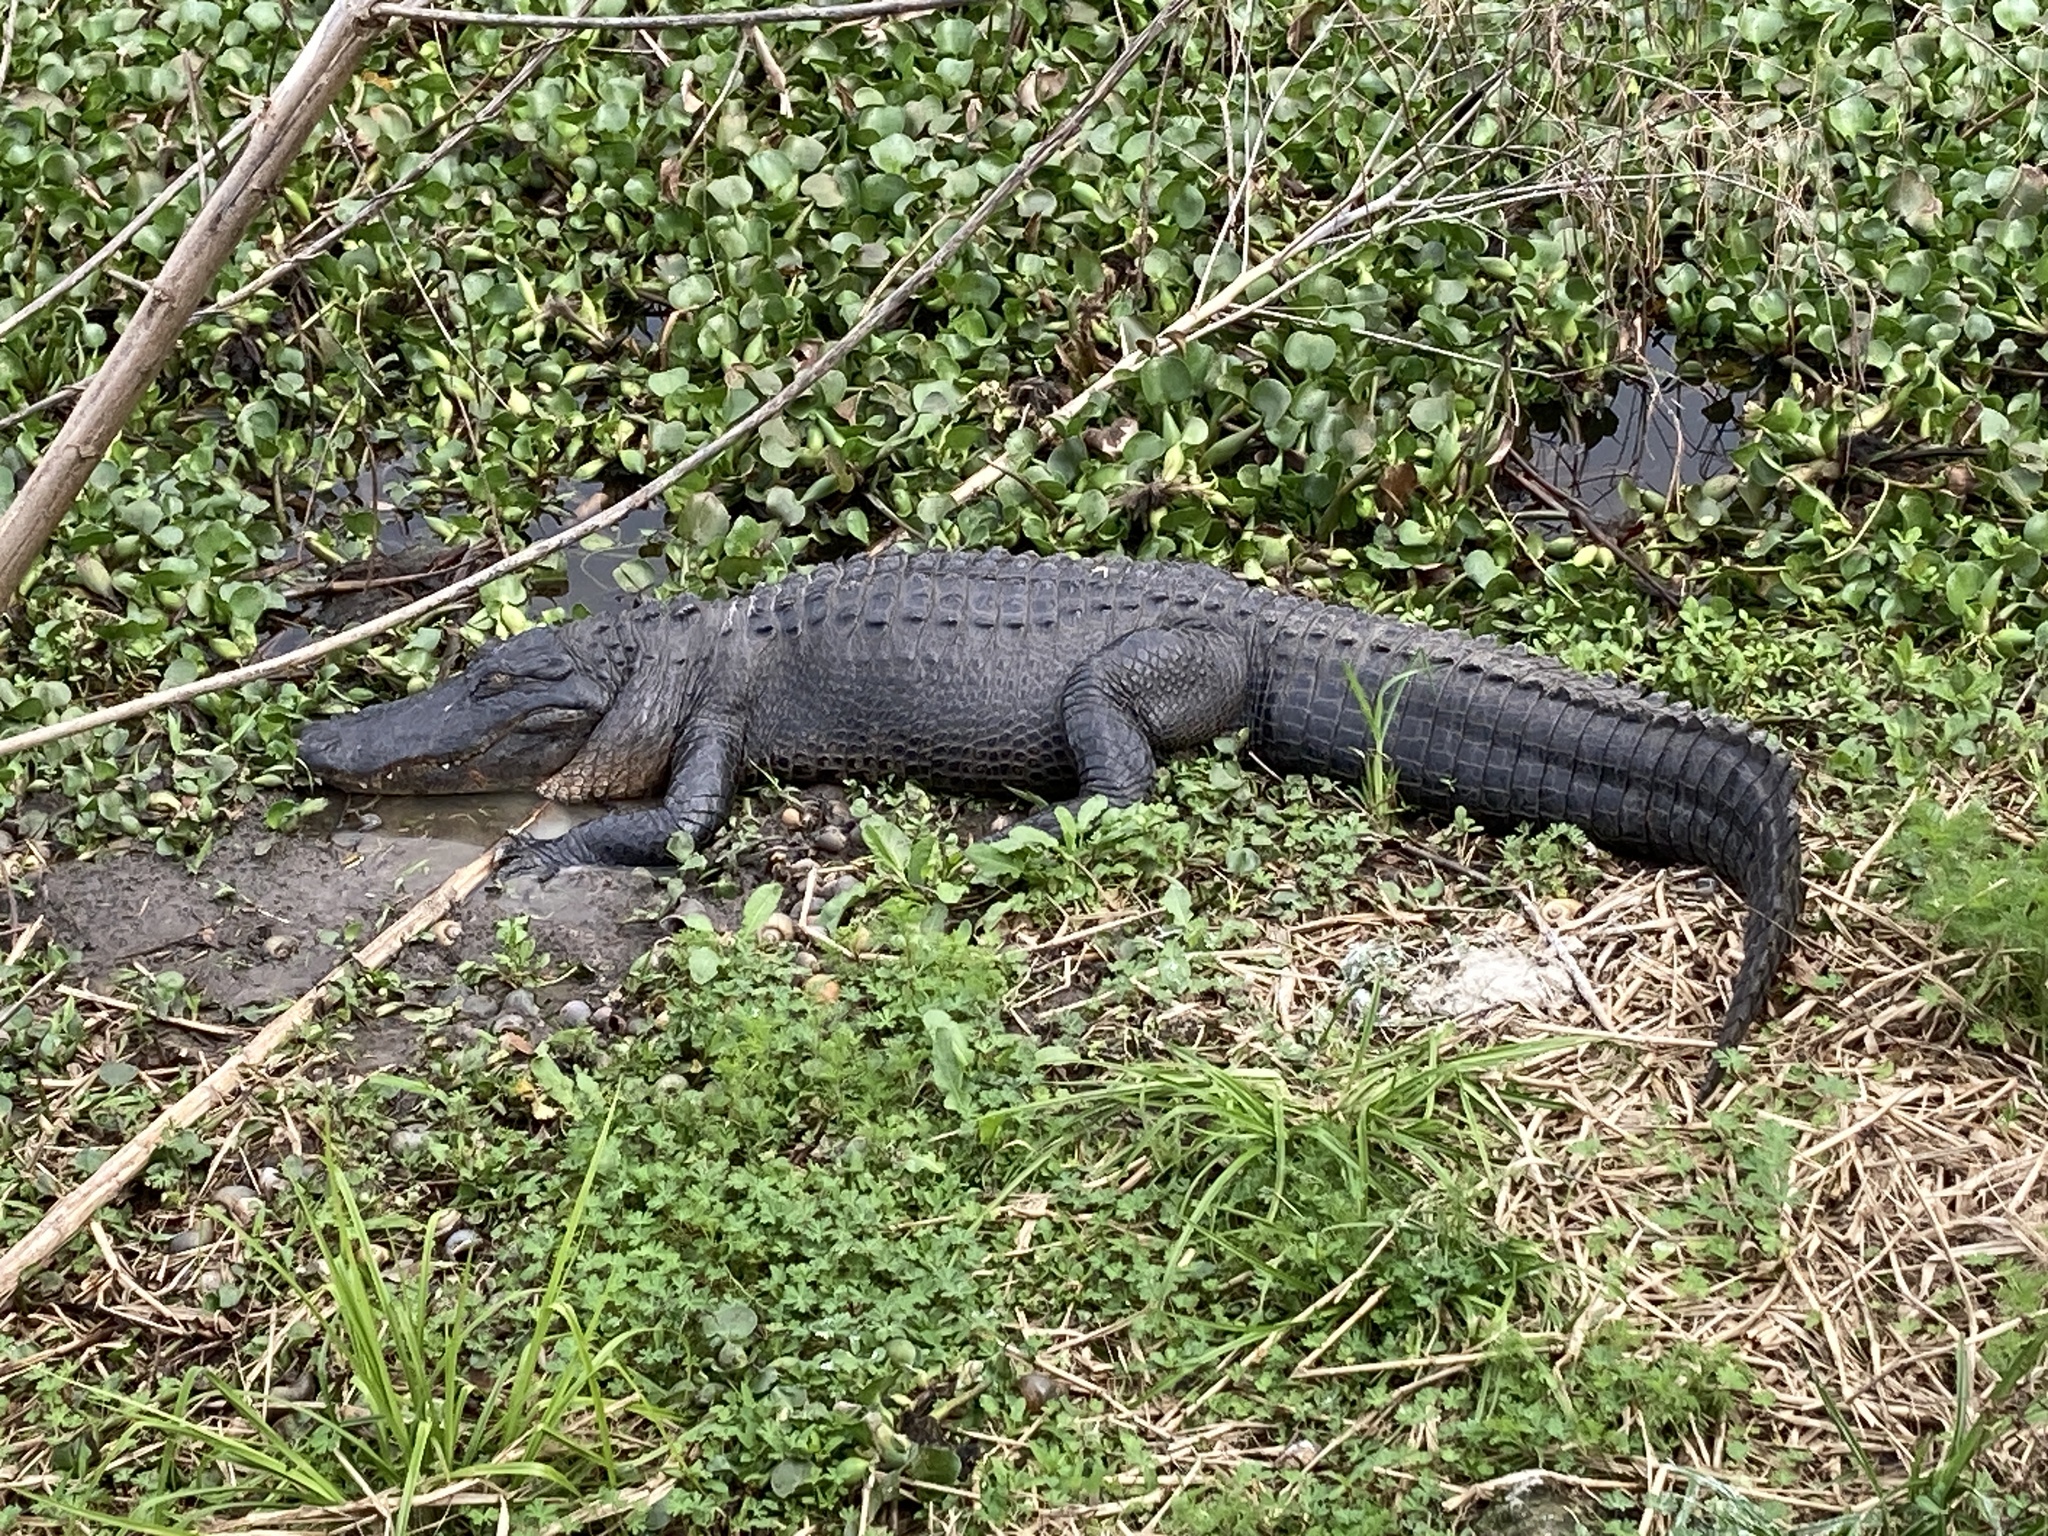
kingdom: Animalia
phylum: Chordata
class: Crocodylia
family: Alligatoridae
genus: Alligator
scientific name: Alligator mississippiensis
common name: American alligator
